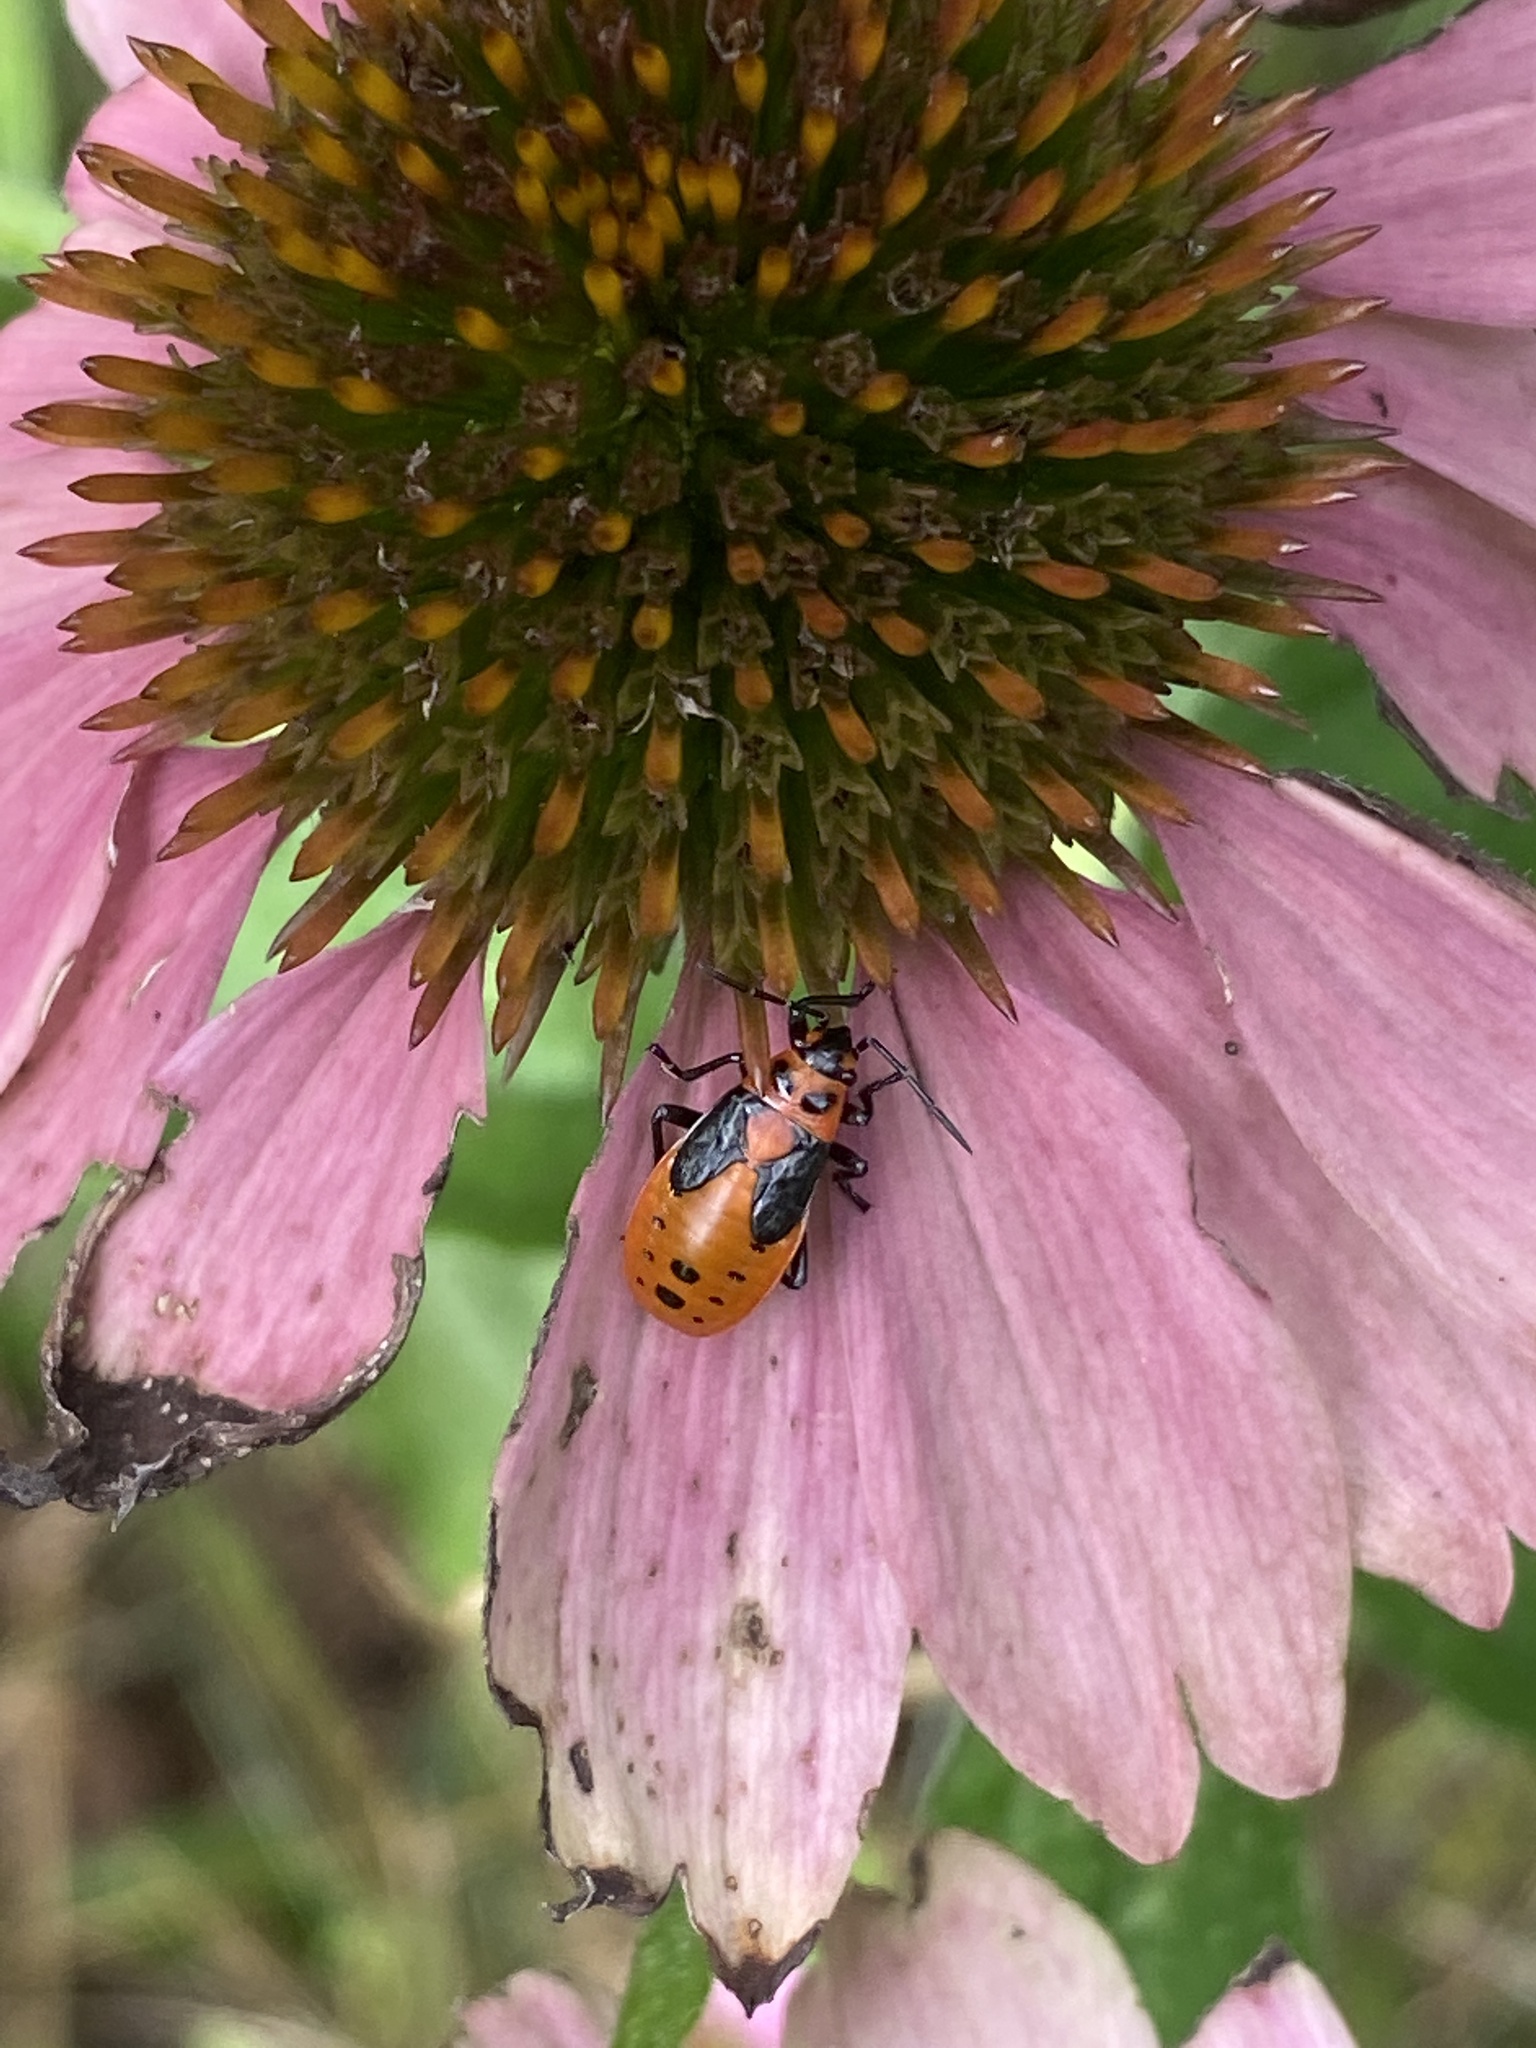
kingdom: Animalia
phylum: Arthropoda
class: Insecta
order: Hemiptera
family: Lygaeidae
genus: Lygaeus
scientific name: Lygaeus kalmii
